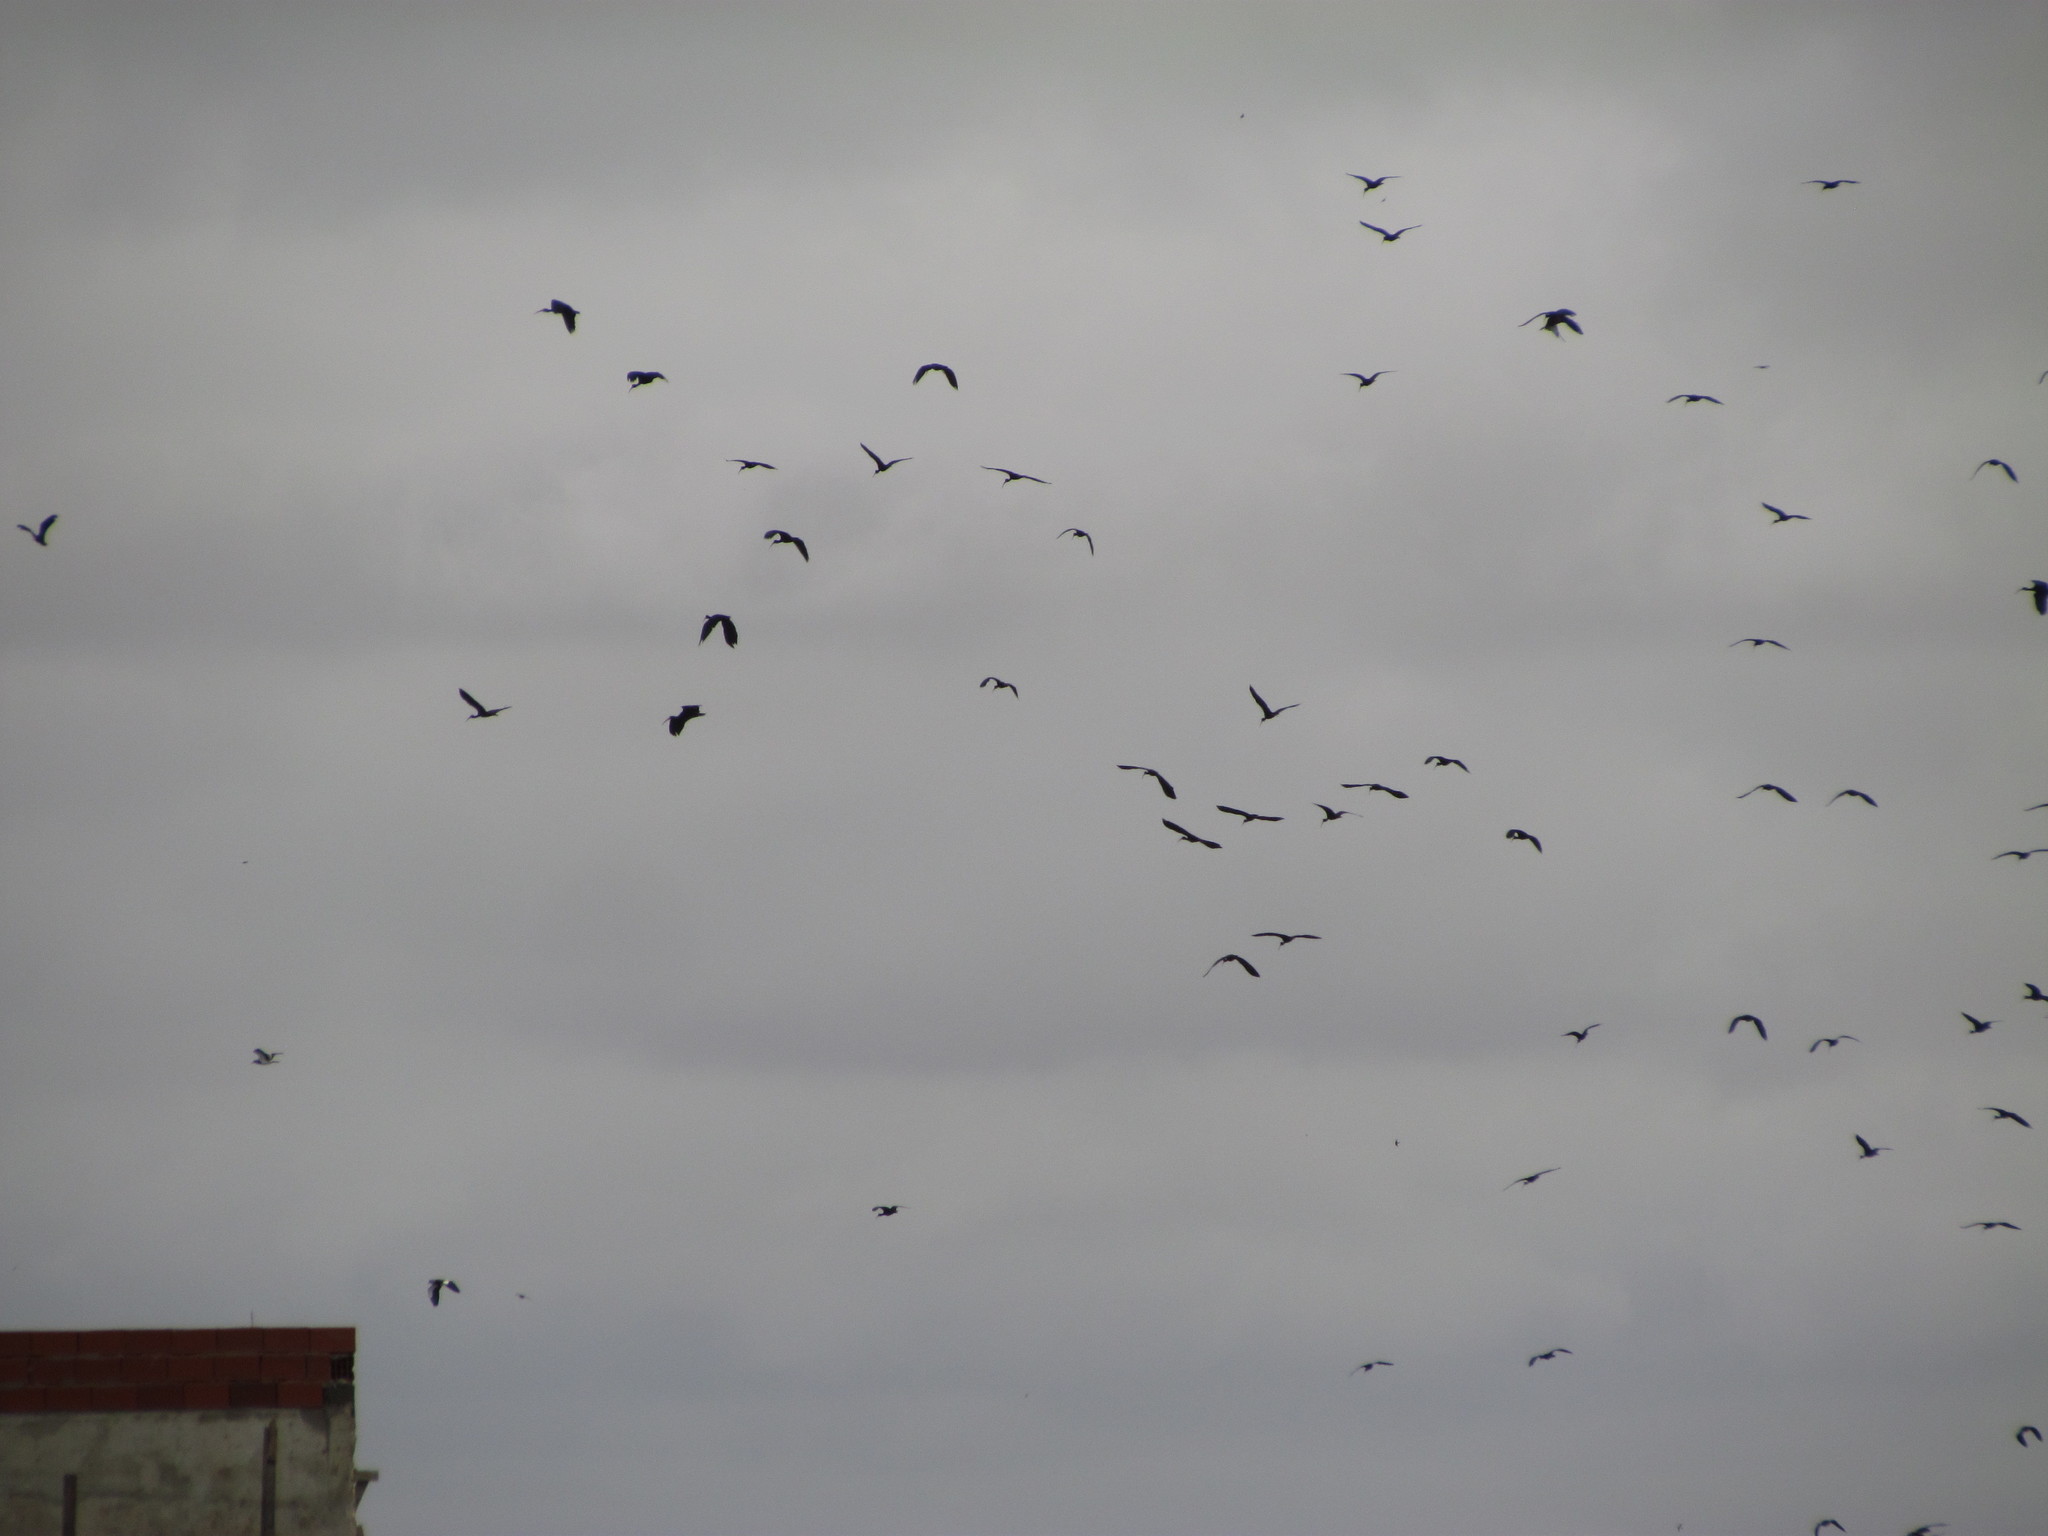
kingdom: Animalia
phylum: Chordata
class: Aves
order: Pelecaniformes
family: Threskiornithidae
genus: Phimosus
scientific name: Phimosus infuscatus
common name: Bare-faced ibis
